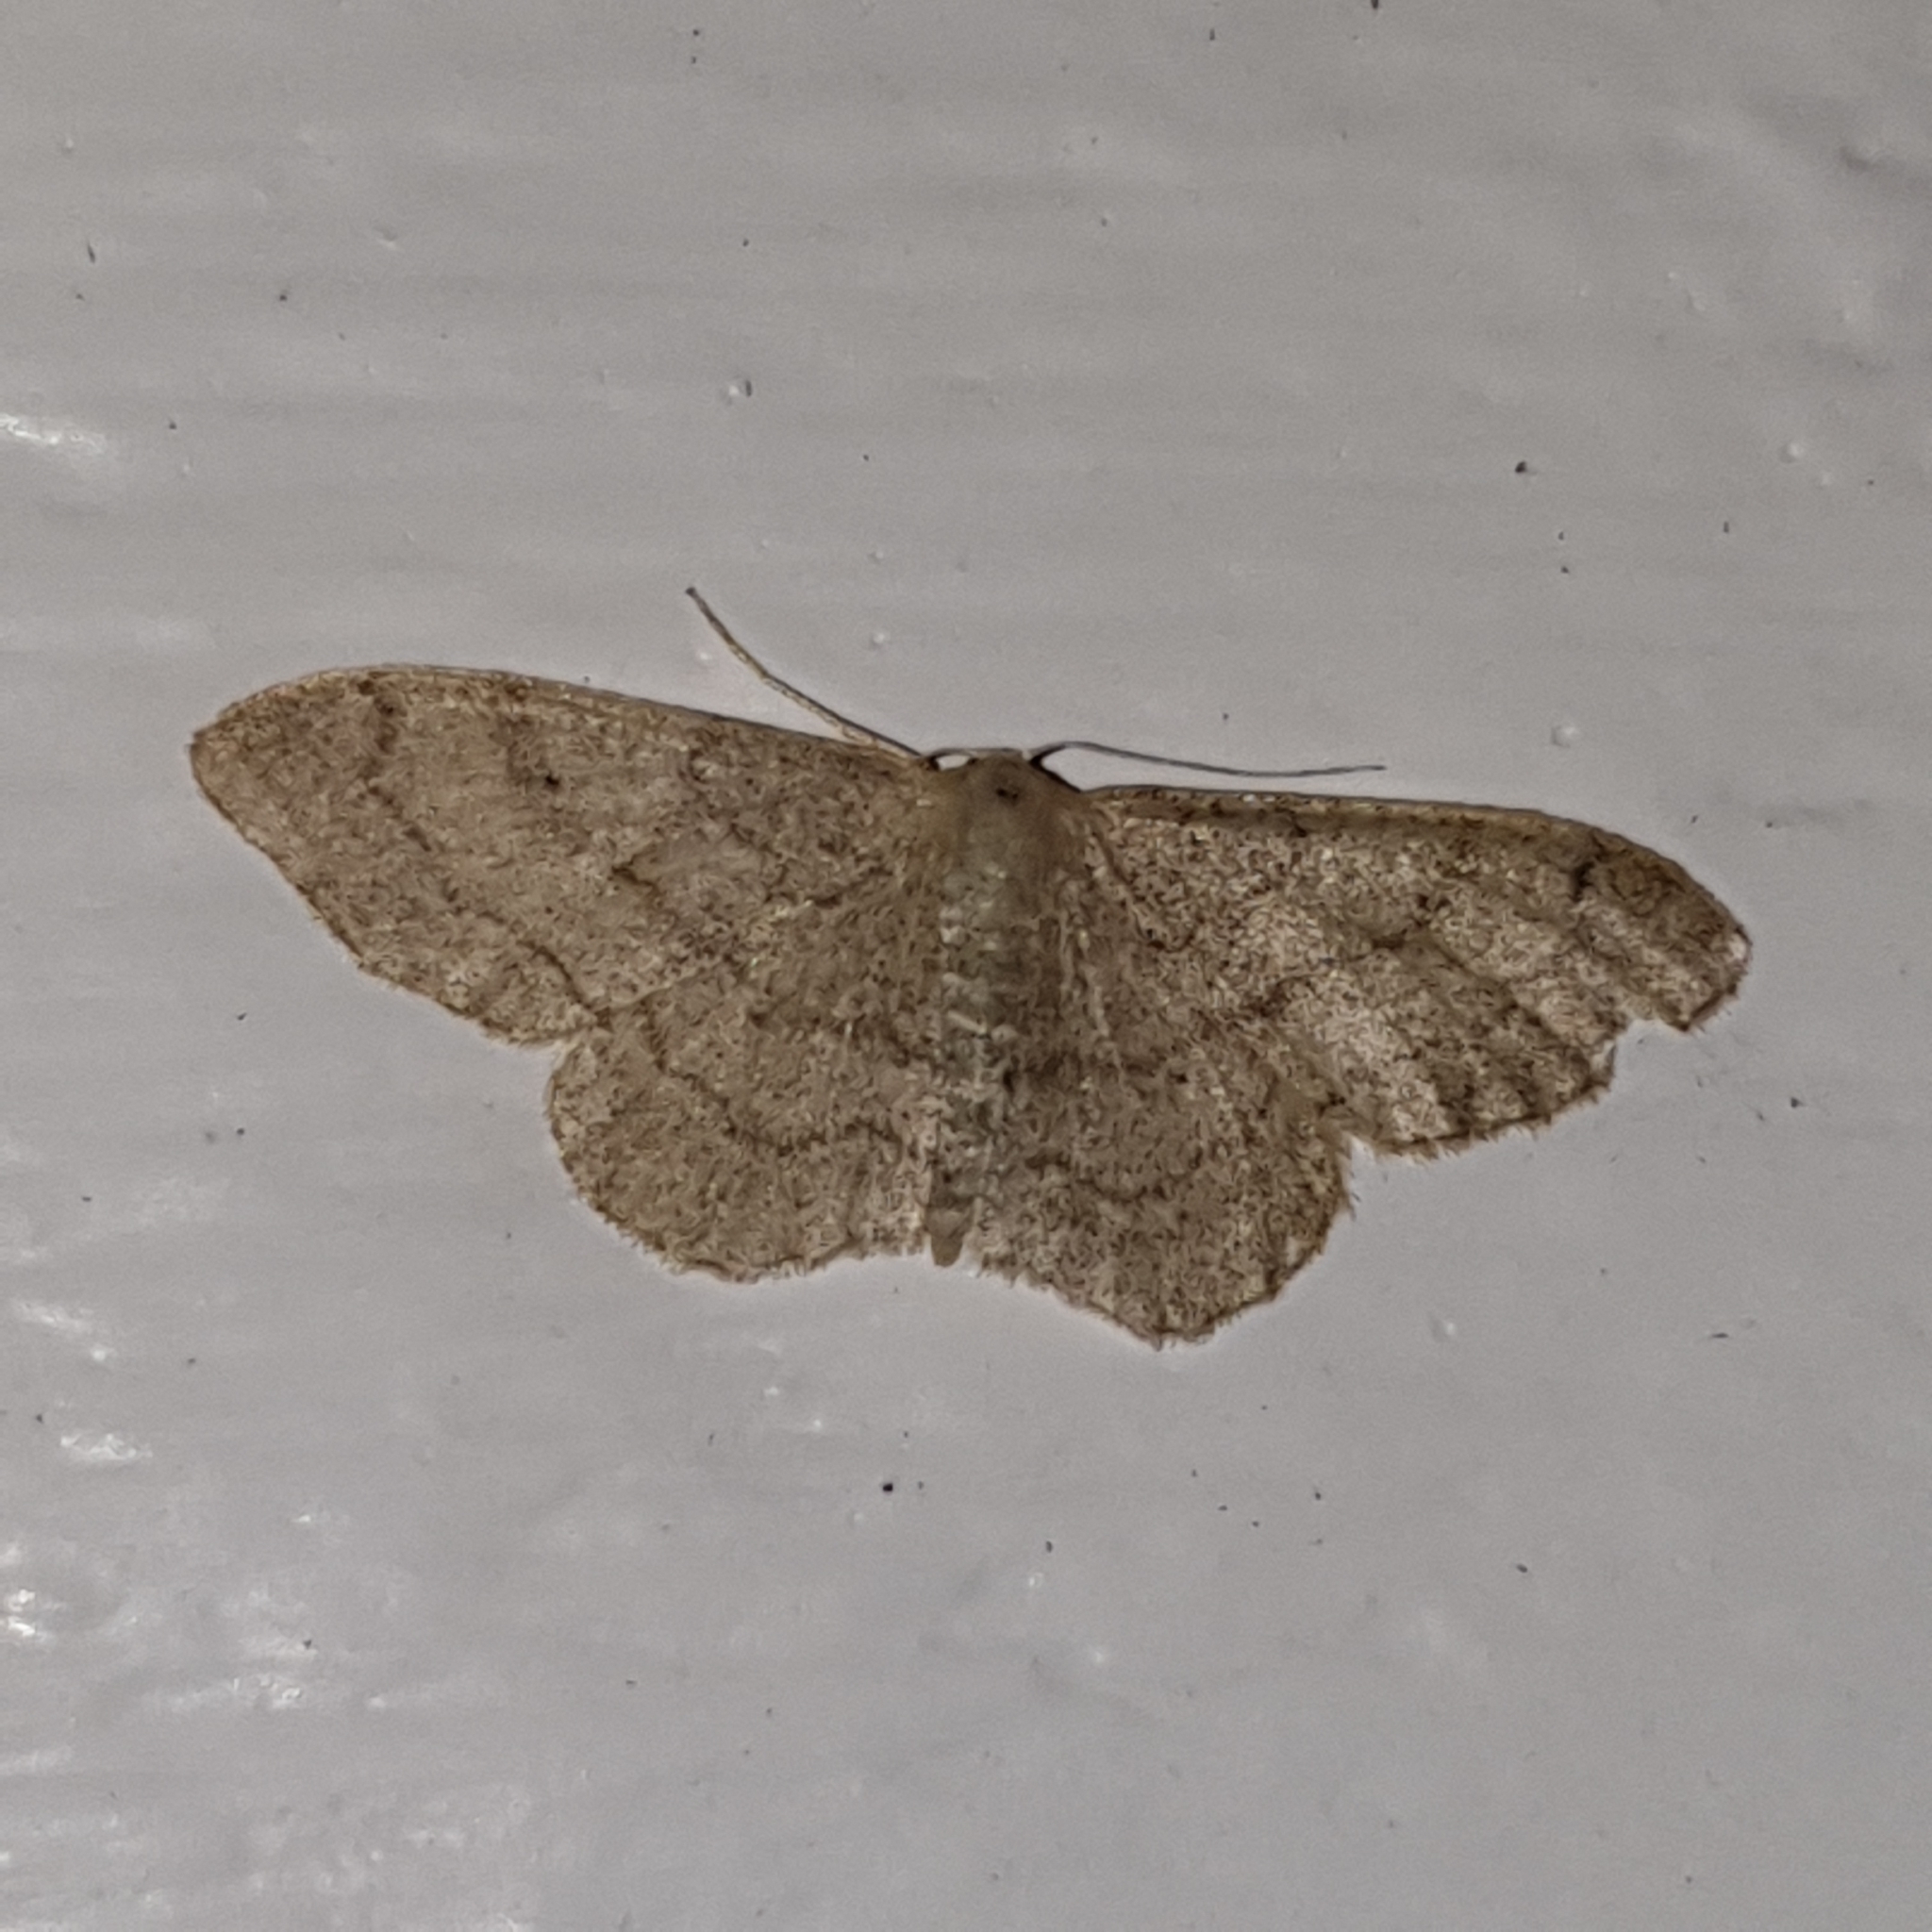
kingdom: Animalia
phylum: Arthropoda
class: Insecta
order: Lepidoptera
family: Geometridae
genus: Idaea
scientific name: Idaea aversata
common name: Riband wave
